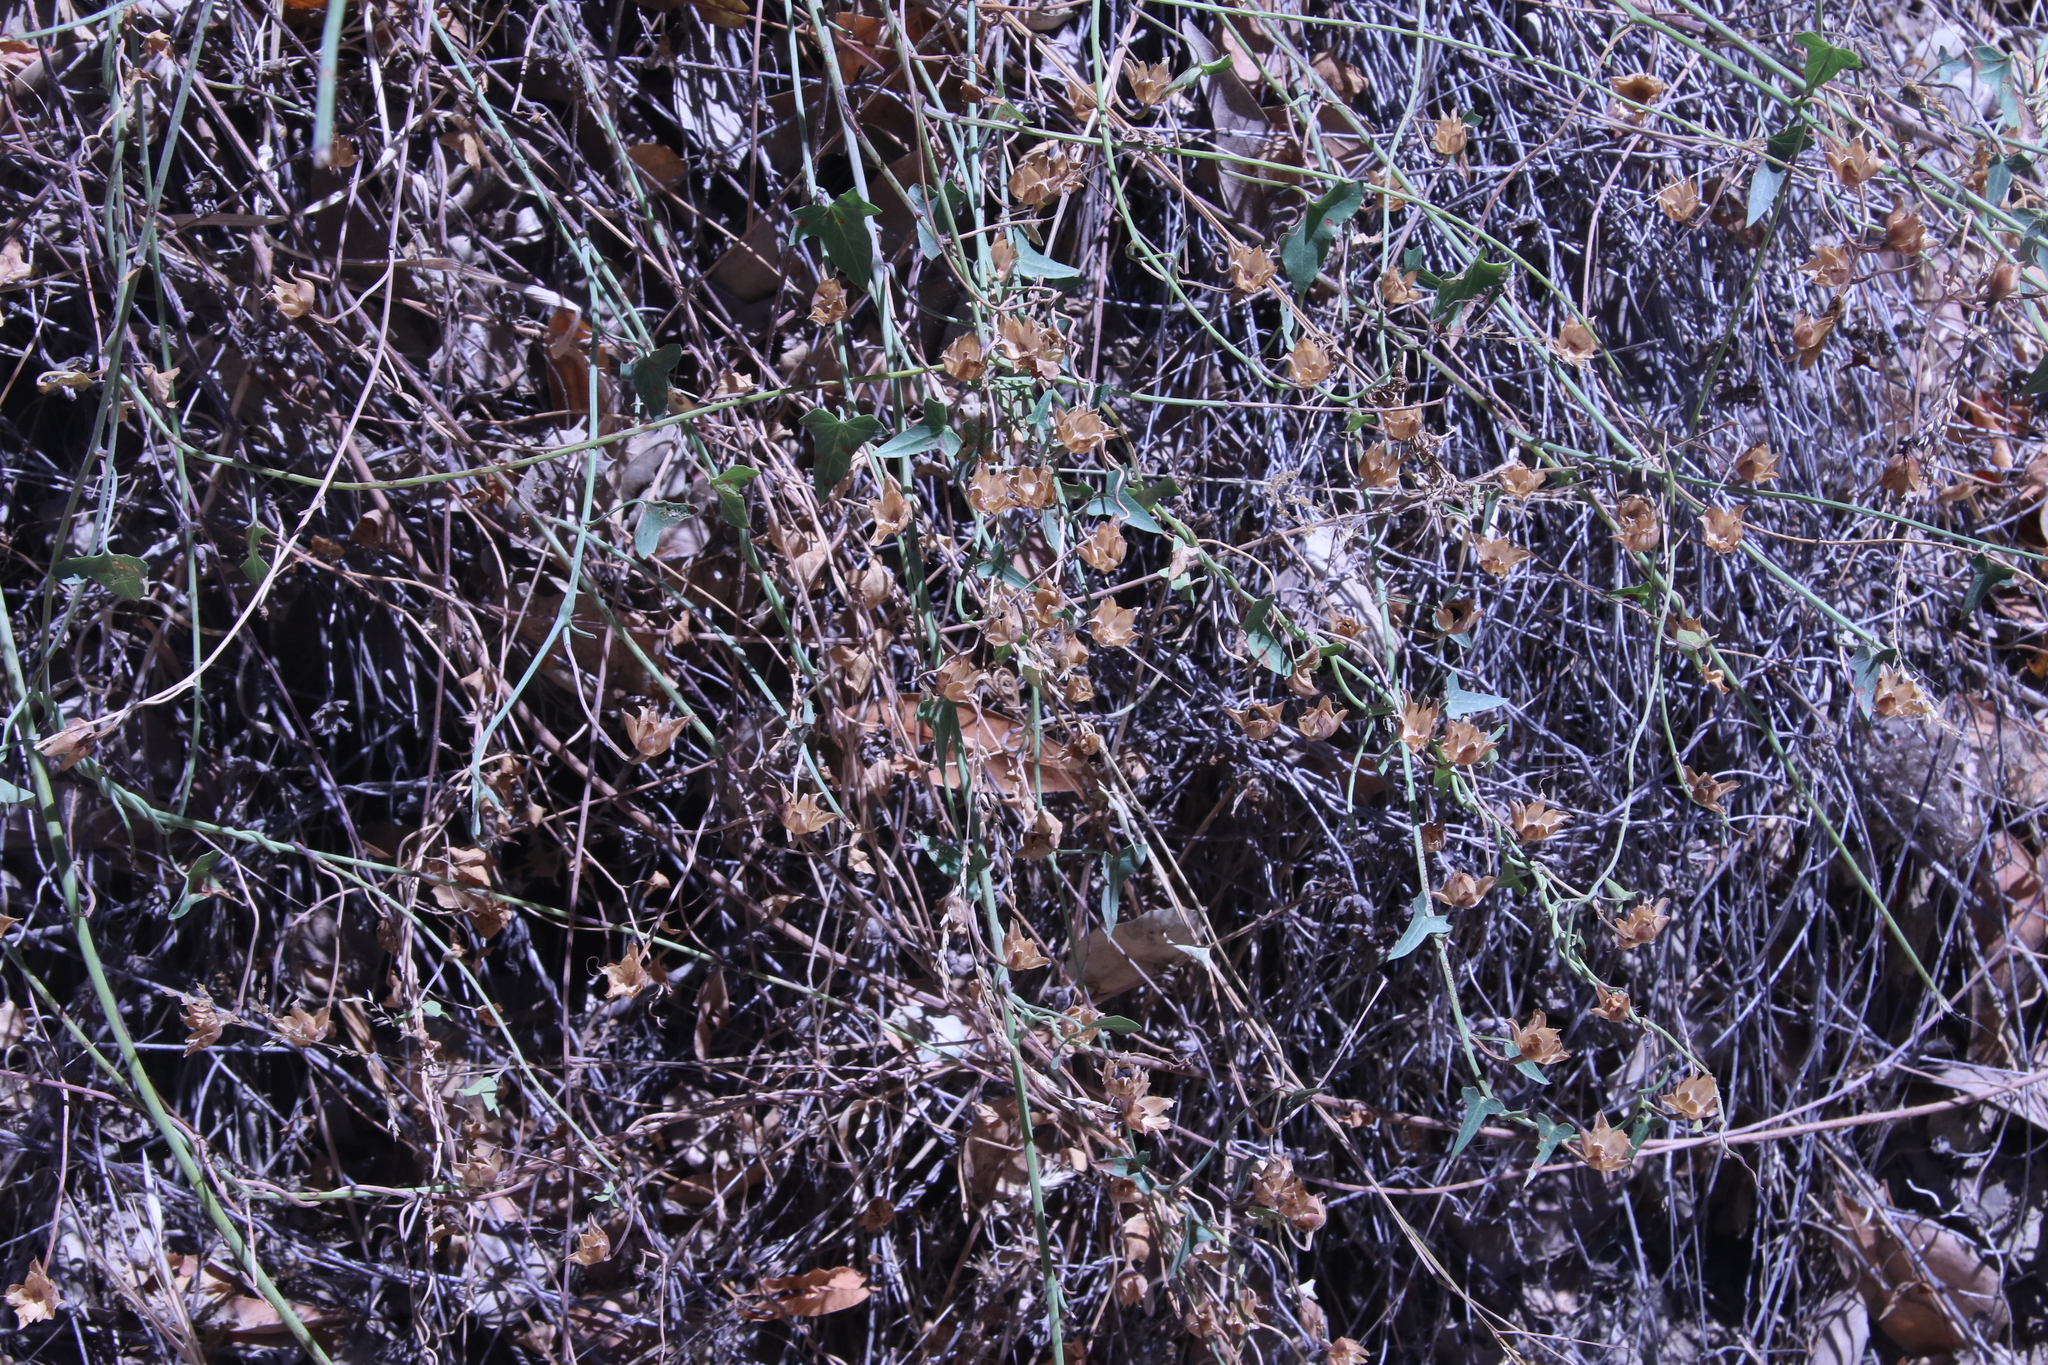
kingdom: Plantae
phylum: Tracheophyta
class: Magnoliopsida
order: Solanales
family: Convolvulaceae
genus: Calystegia
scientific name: Calystegia purpurata
